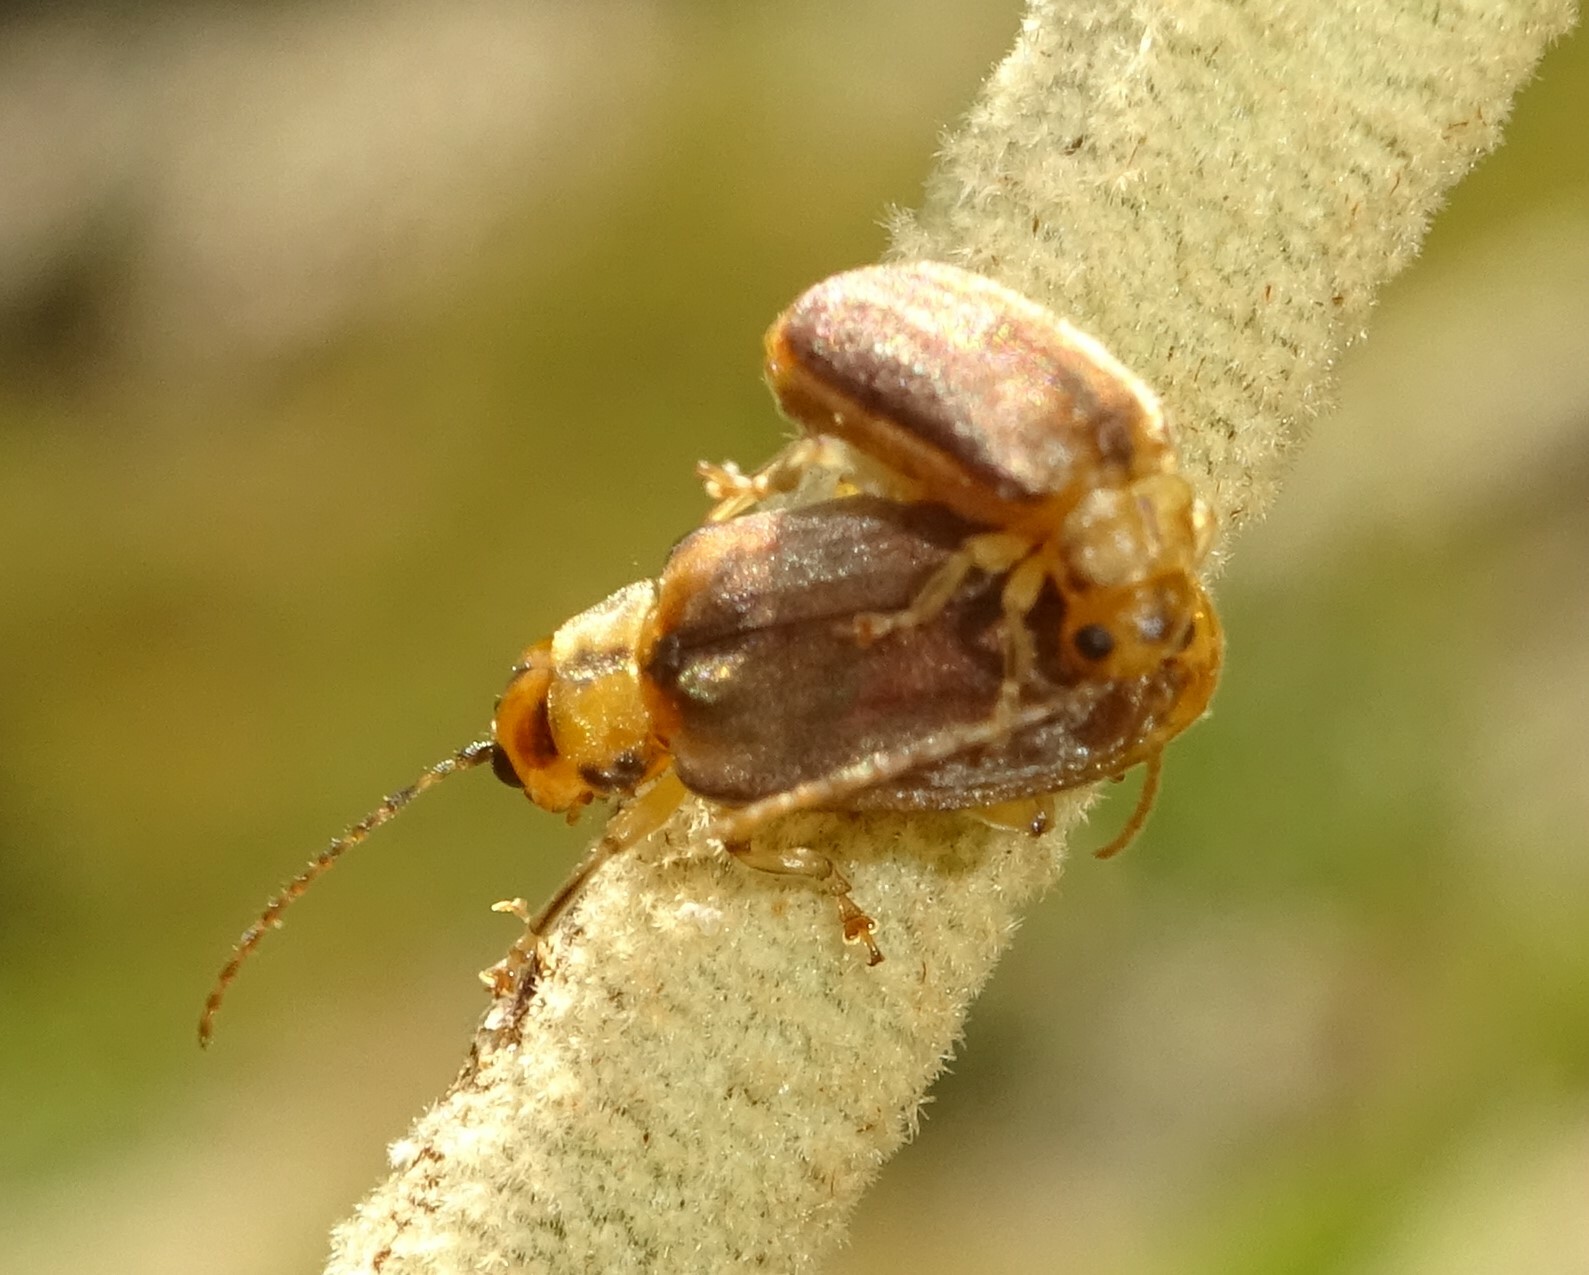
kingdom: Animalia
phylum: Arthropoda
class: Insecta
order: Coleoptera
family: Chrysomelidae
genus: Pyrrhalta
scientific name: Pyrrhalta viburni
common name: Guelder-rose leaf beetle
